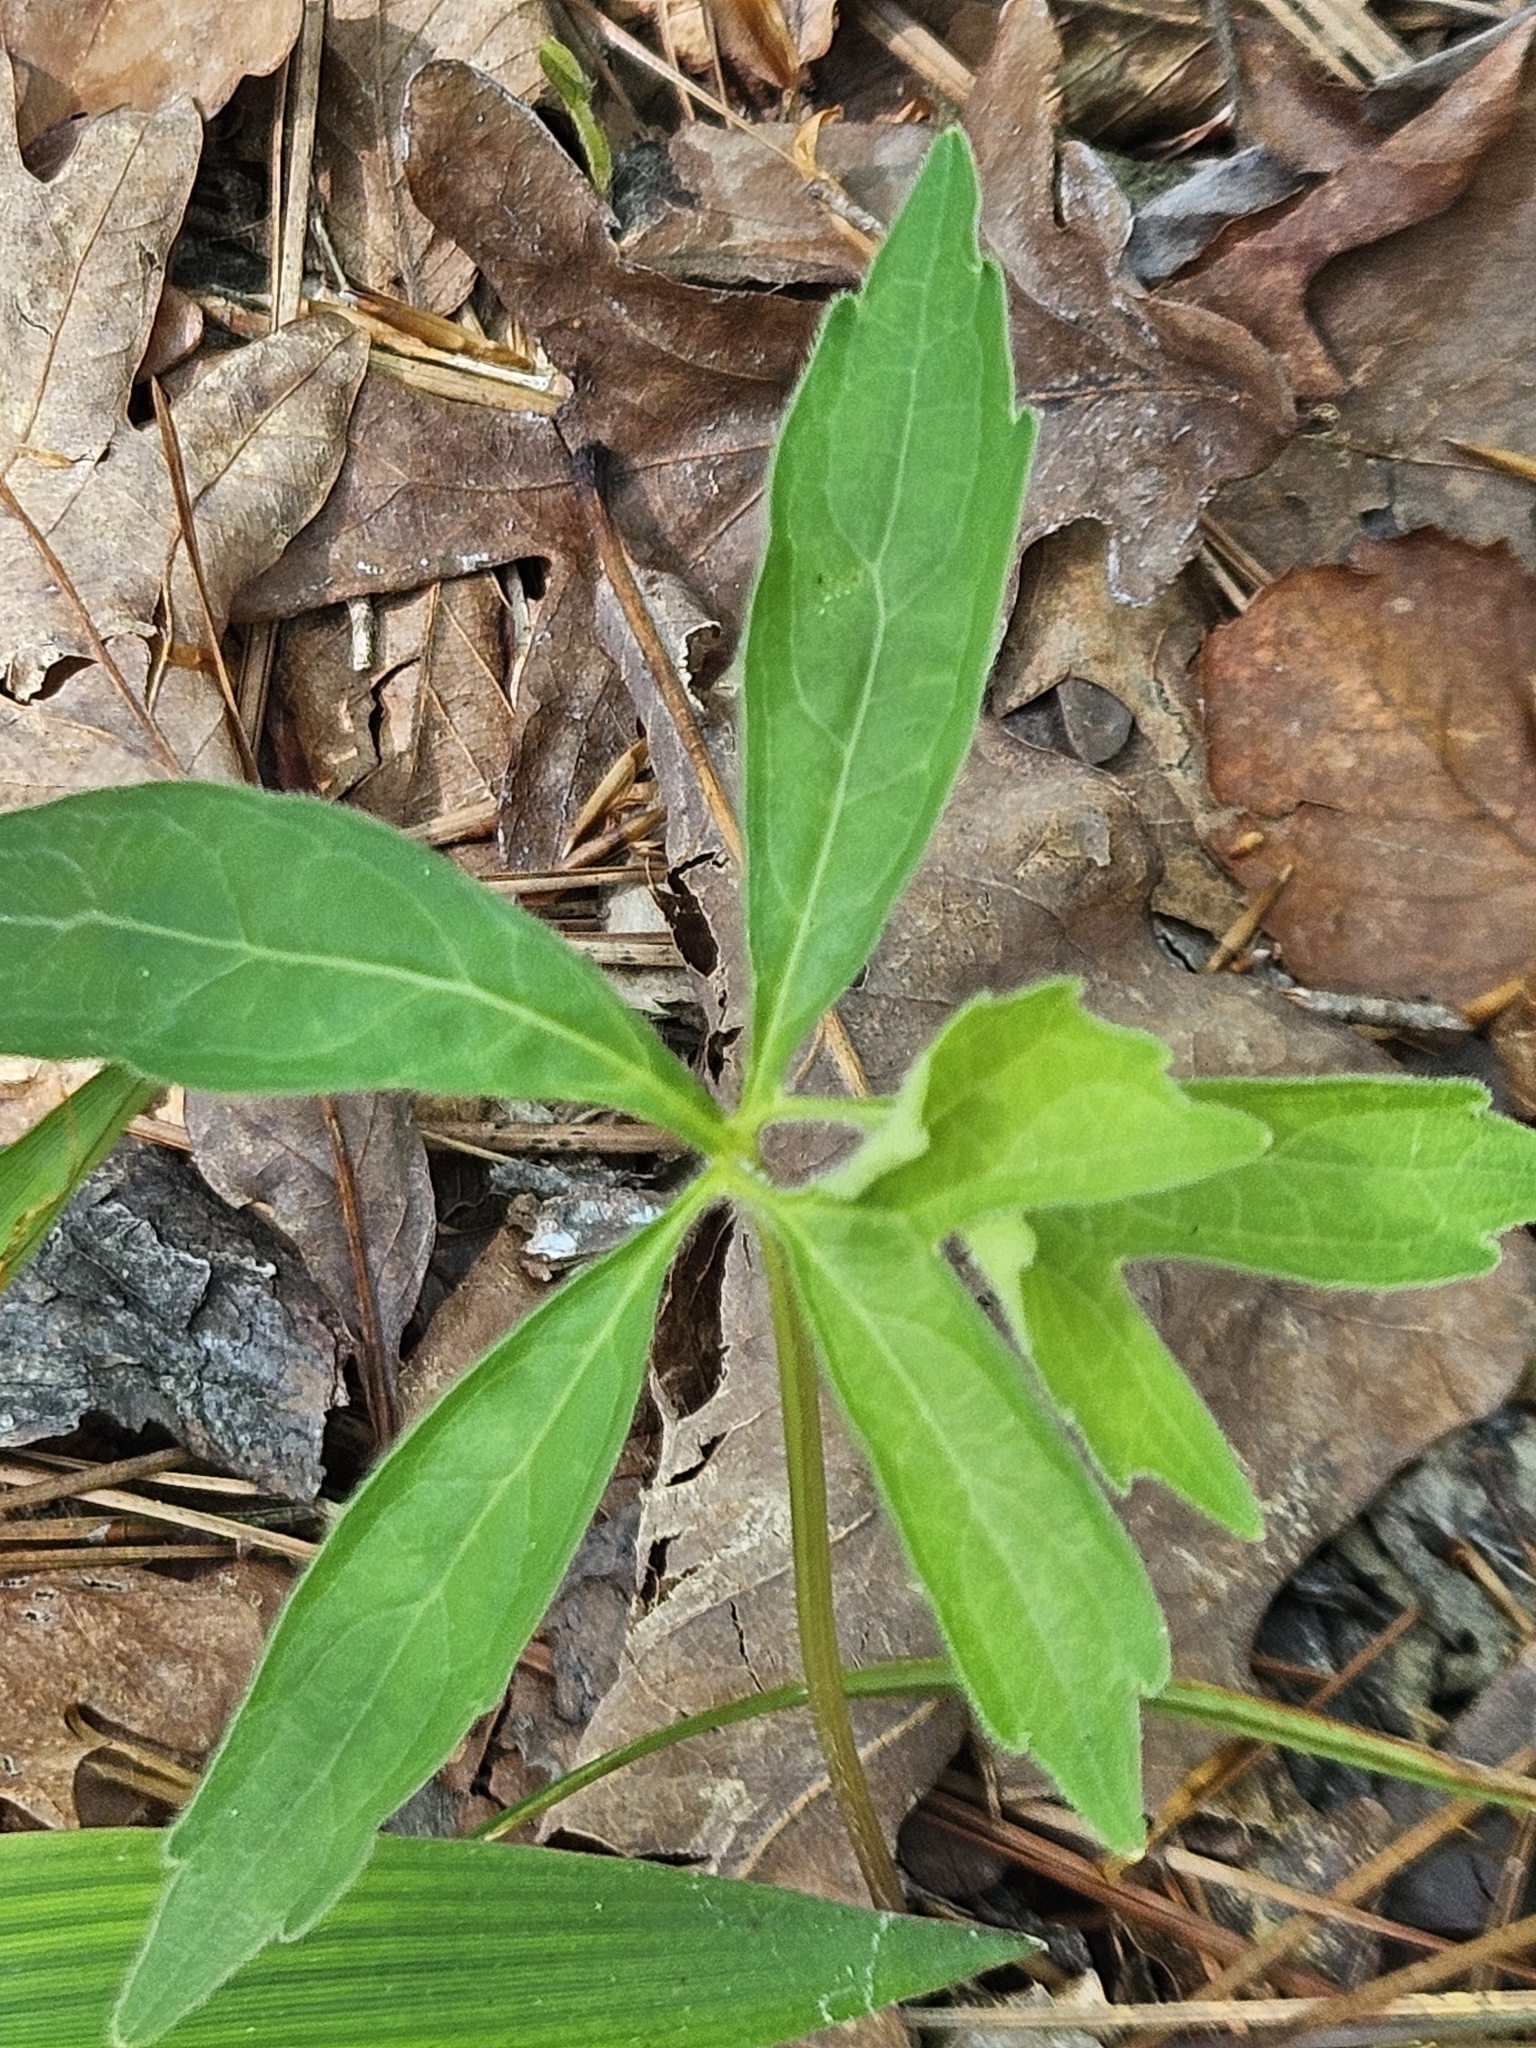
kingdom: Plantae
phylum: Tracheophyta
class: Magnoliopsida
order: Malpighiales
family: Violaceae
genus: Viola
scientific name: Viola palmata
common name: Early blue violet
